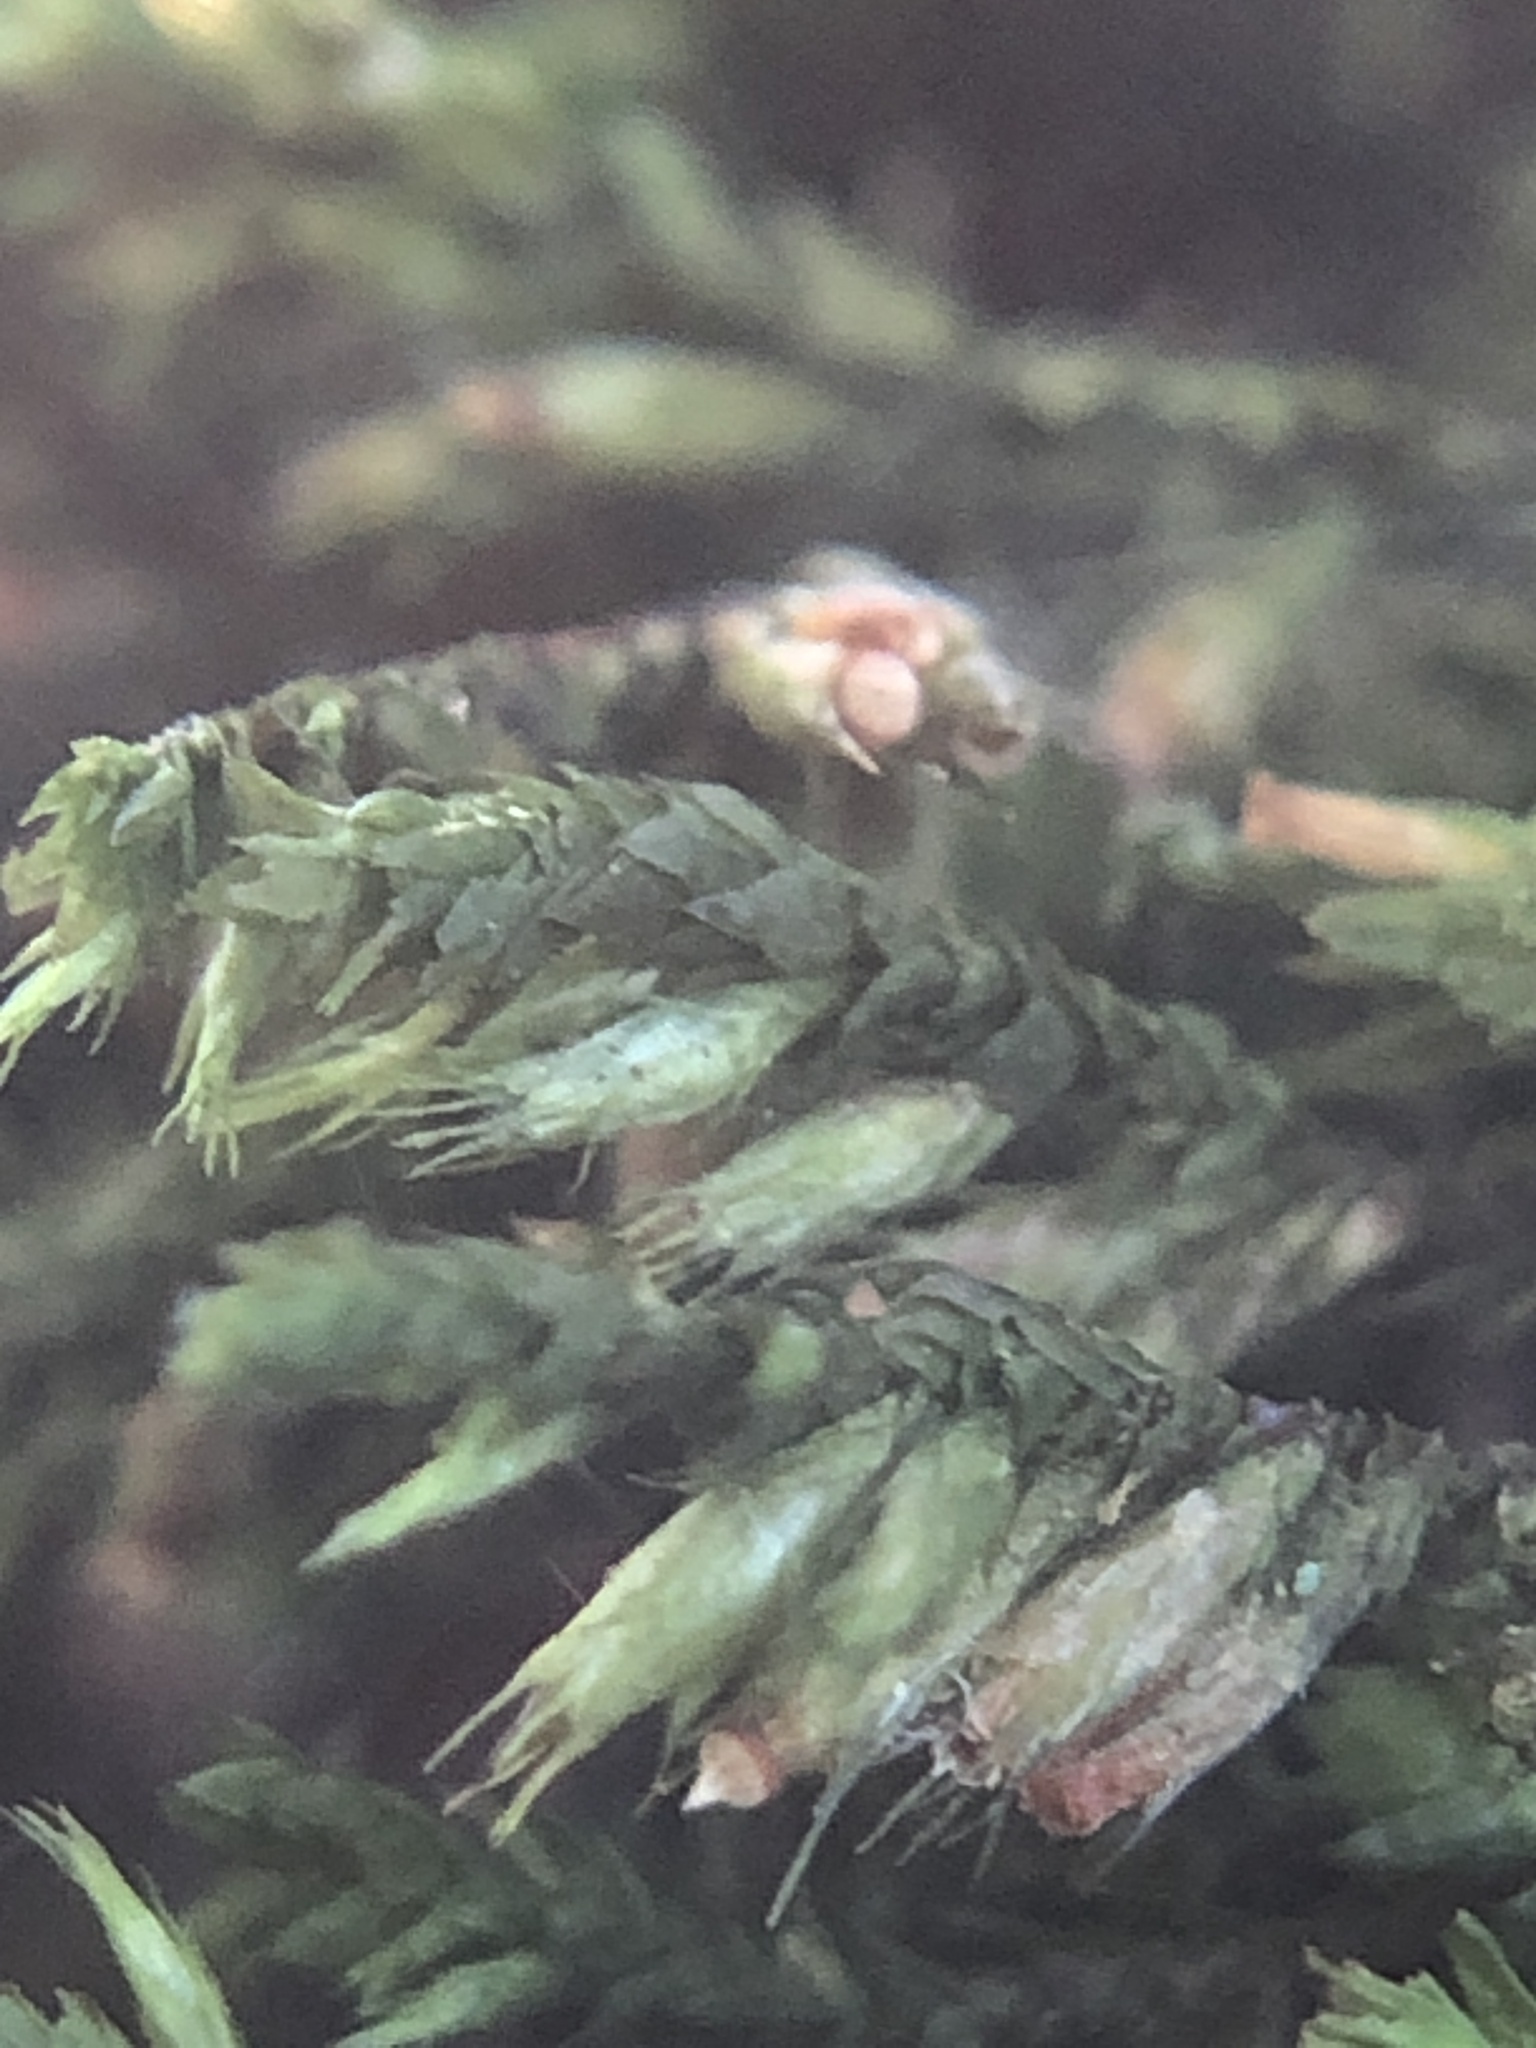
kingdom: Plantae
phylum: Bryophyta
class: Bryopsida
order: Hypnales
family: Cryphaeaceae
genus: Cryphaea
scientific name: Cryphaea heteromalla
